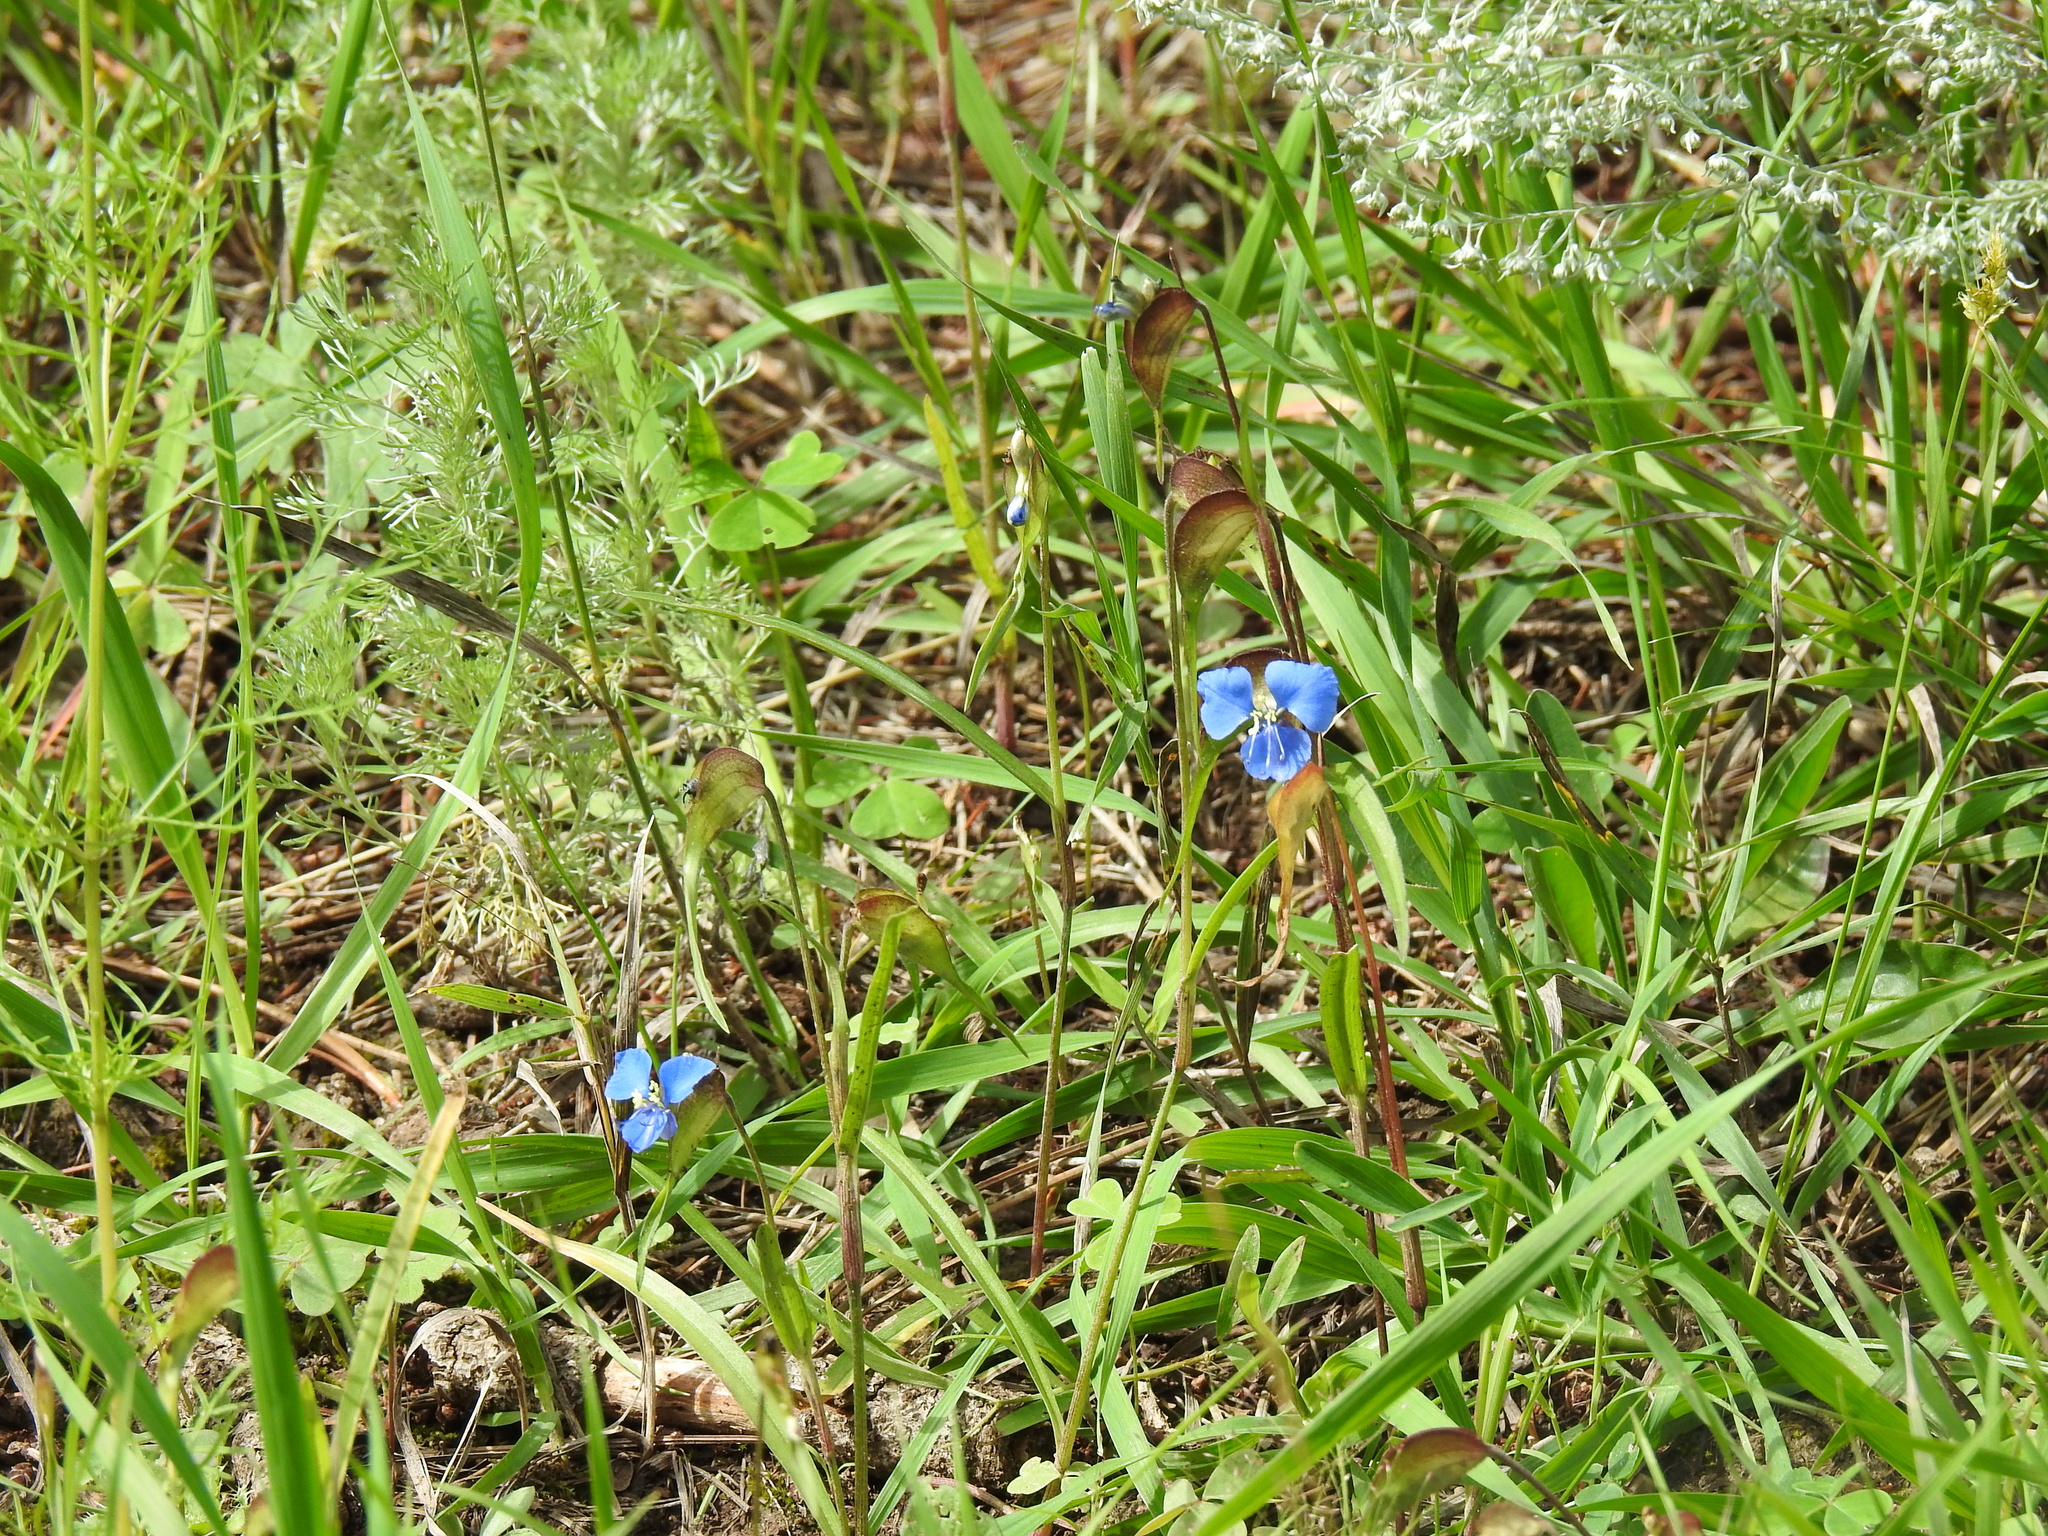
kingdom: Plantae
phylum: Tracheophyta
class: Liliopsida
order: Commelinales
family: Commelinaceae
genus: Commelina
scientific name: Commelina dianthifolia
